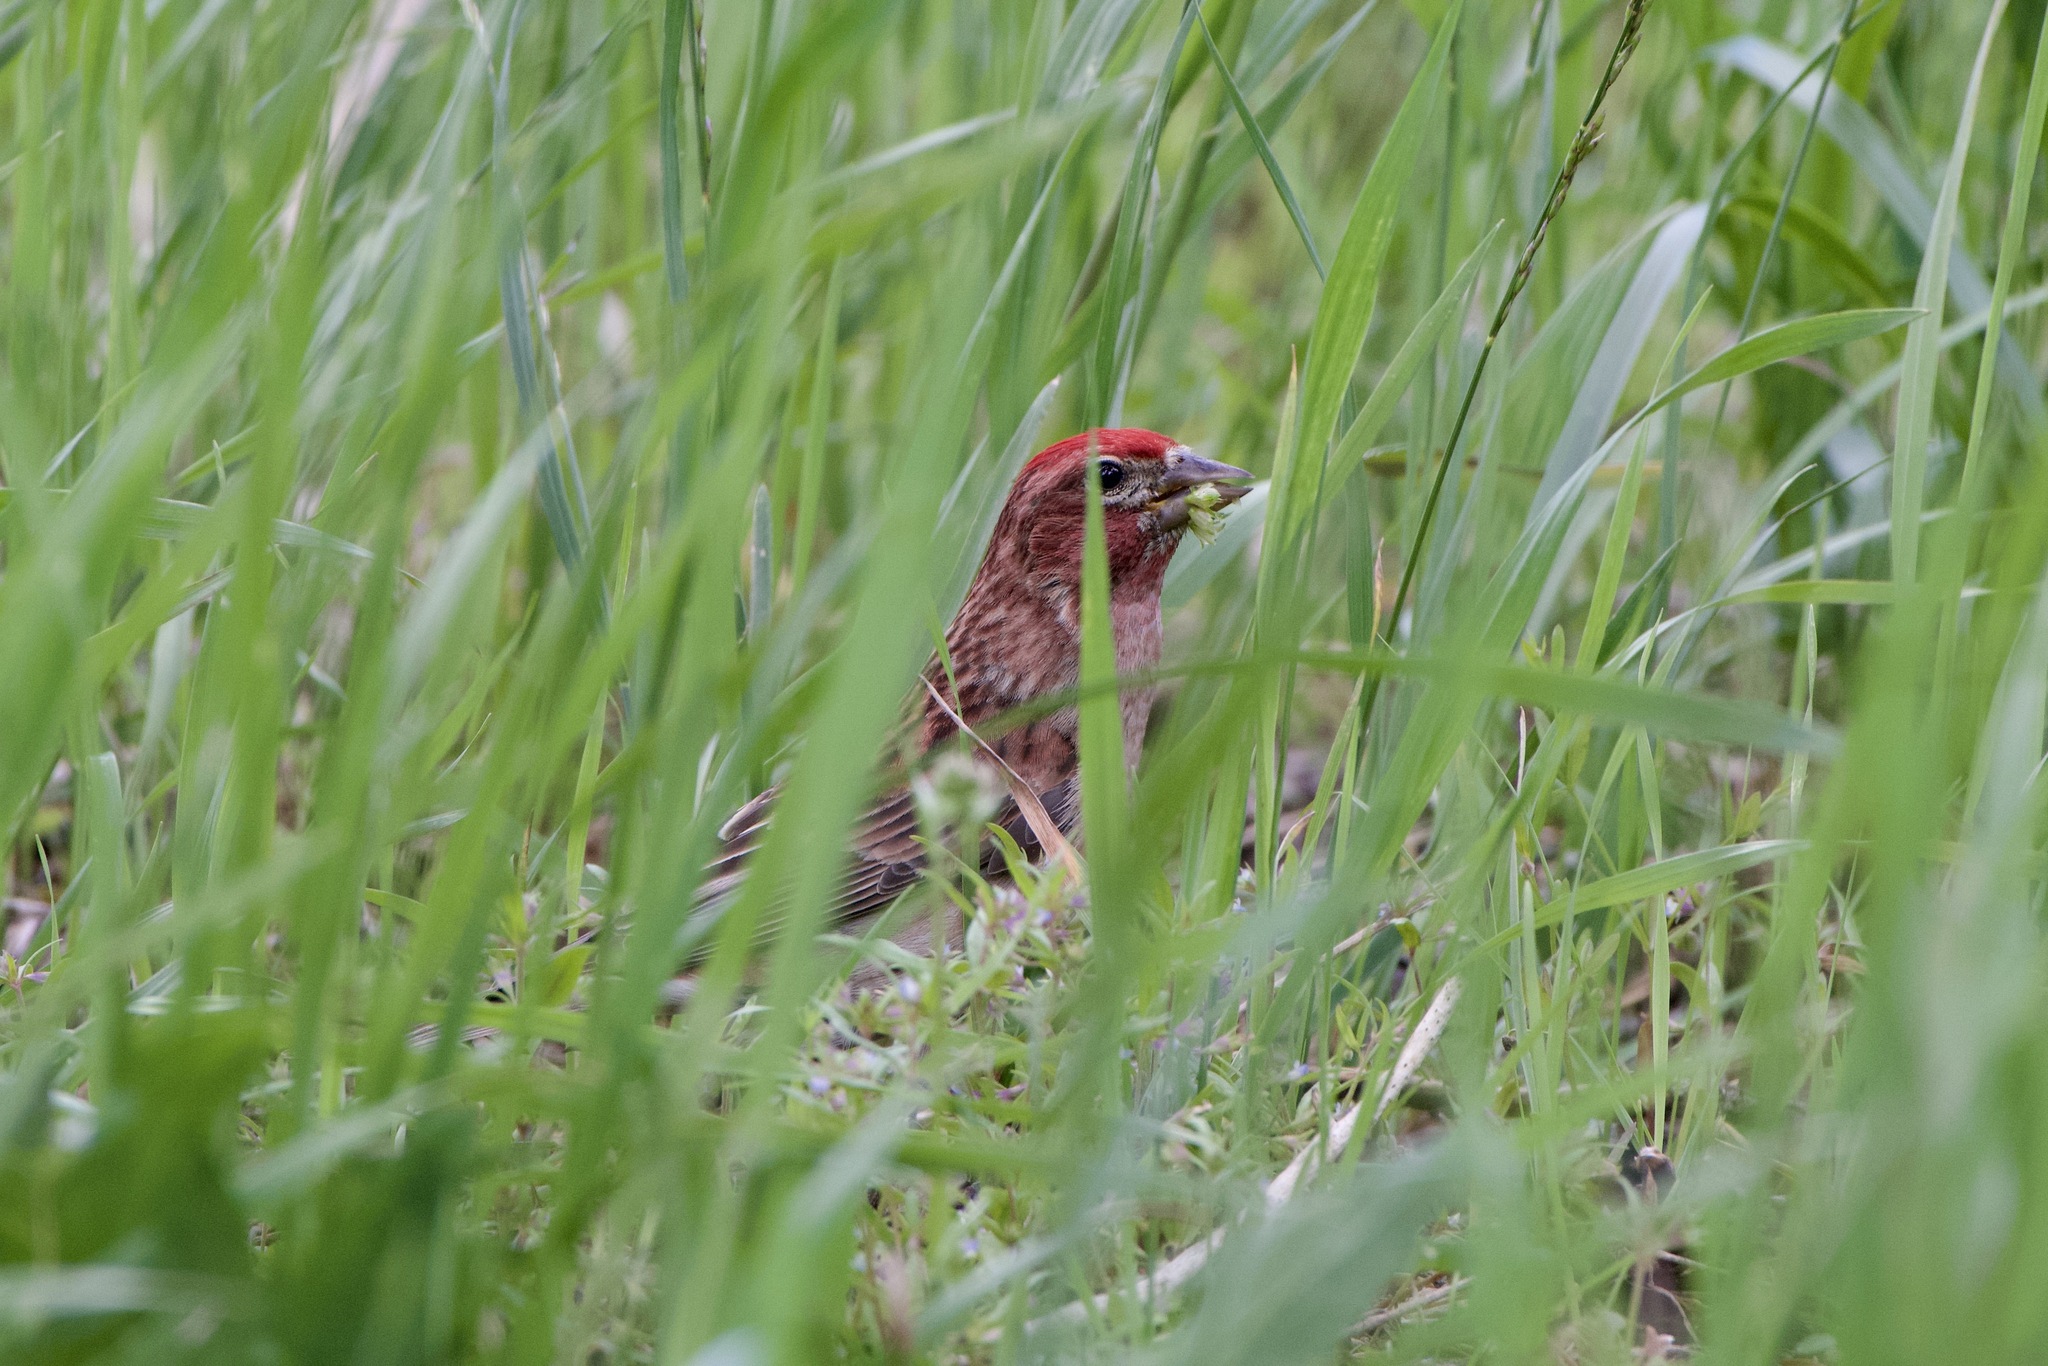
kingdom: Animalia
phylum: Chordata
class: Aves
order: Passeriformes
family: Fringillidae
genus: Haemorhous
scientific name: Haemorhous purpureus
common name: Purple finch
